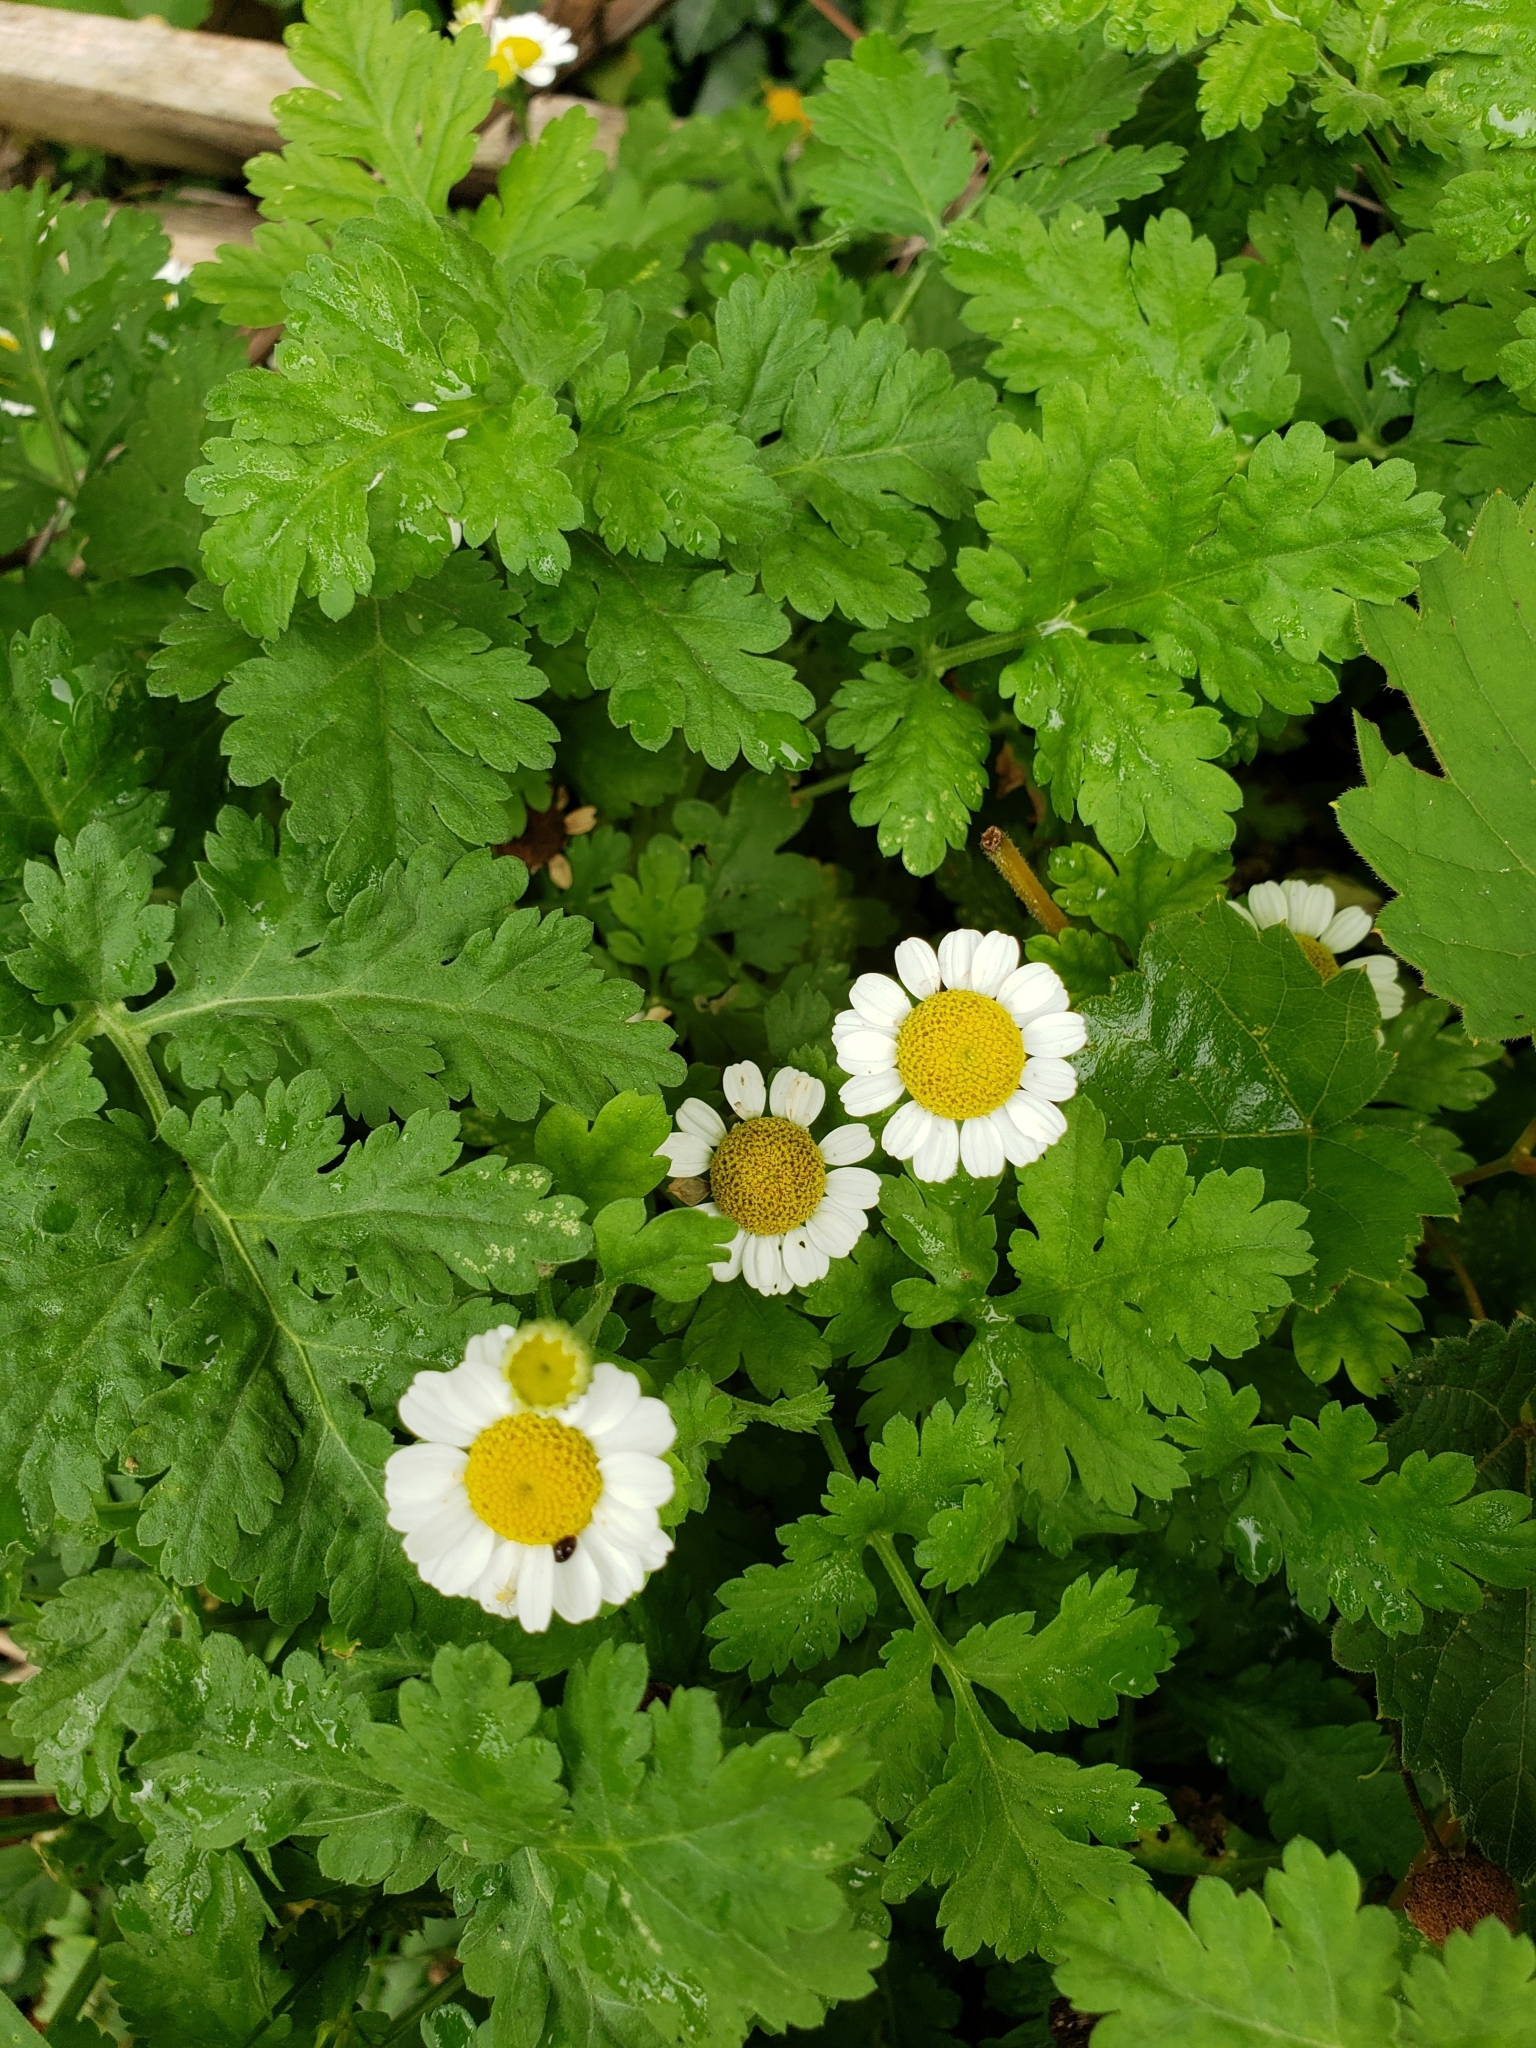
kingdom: Plantae
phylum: Tracheophyta
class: Magnoliopsida
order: Asterales
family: Asteraceae
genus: Tanacetum
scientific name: Tanacetum parthenium
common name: Feverfew
